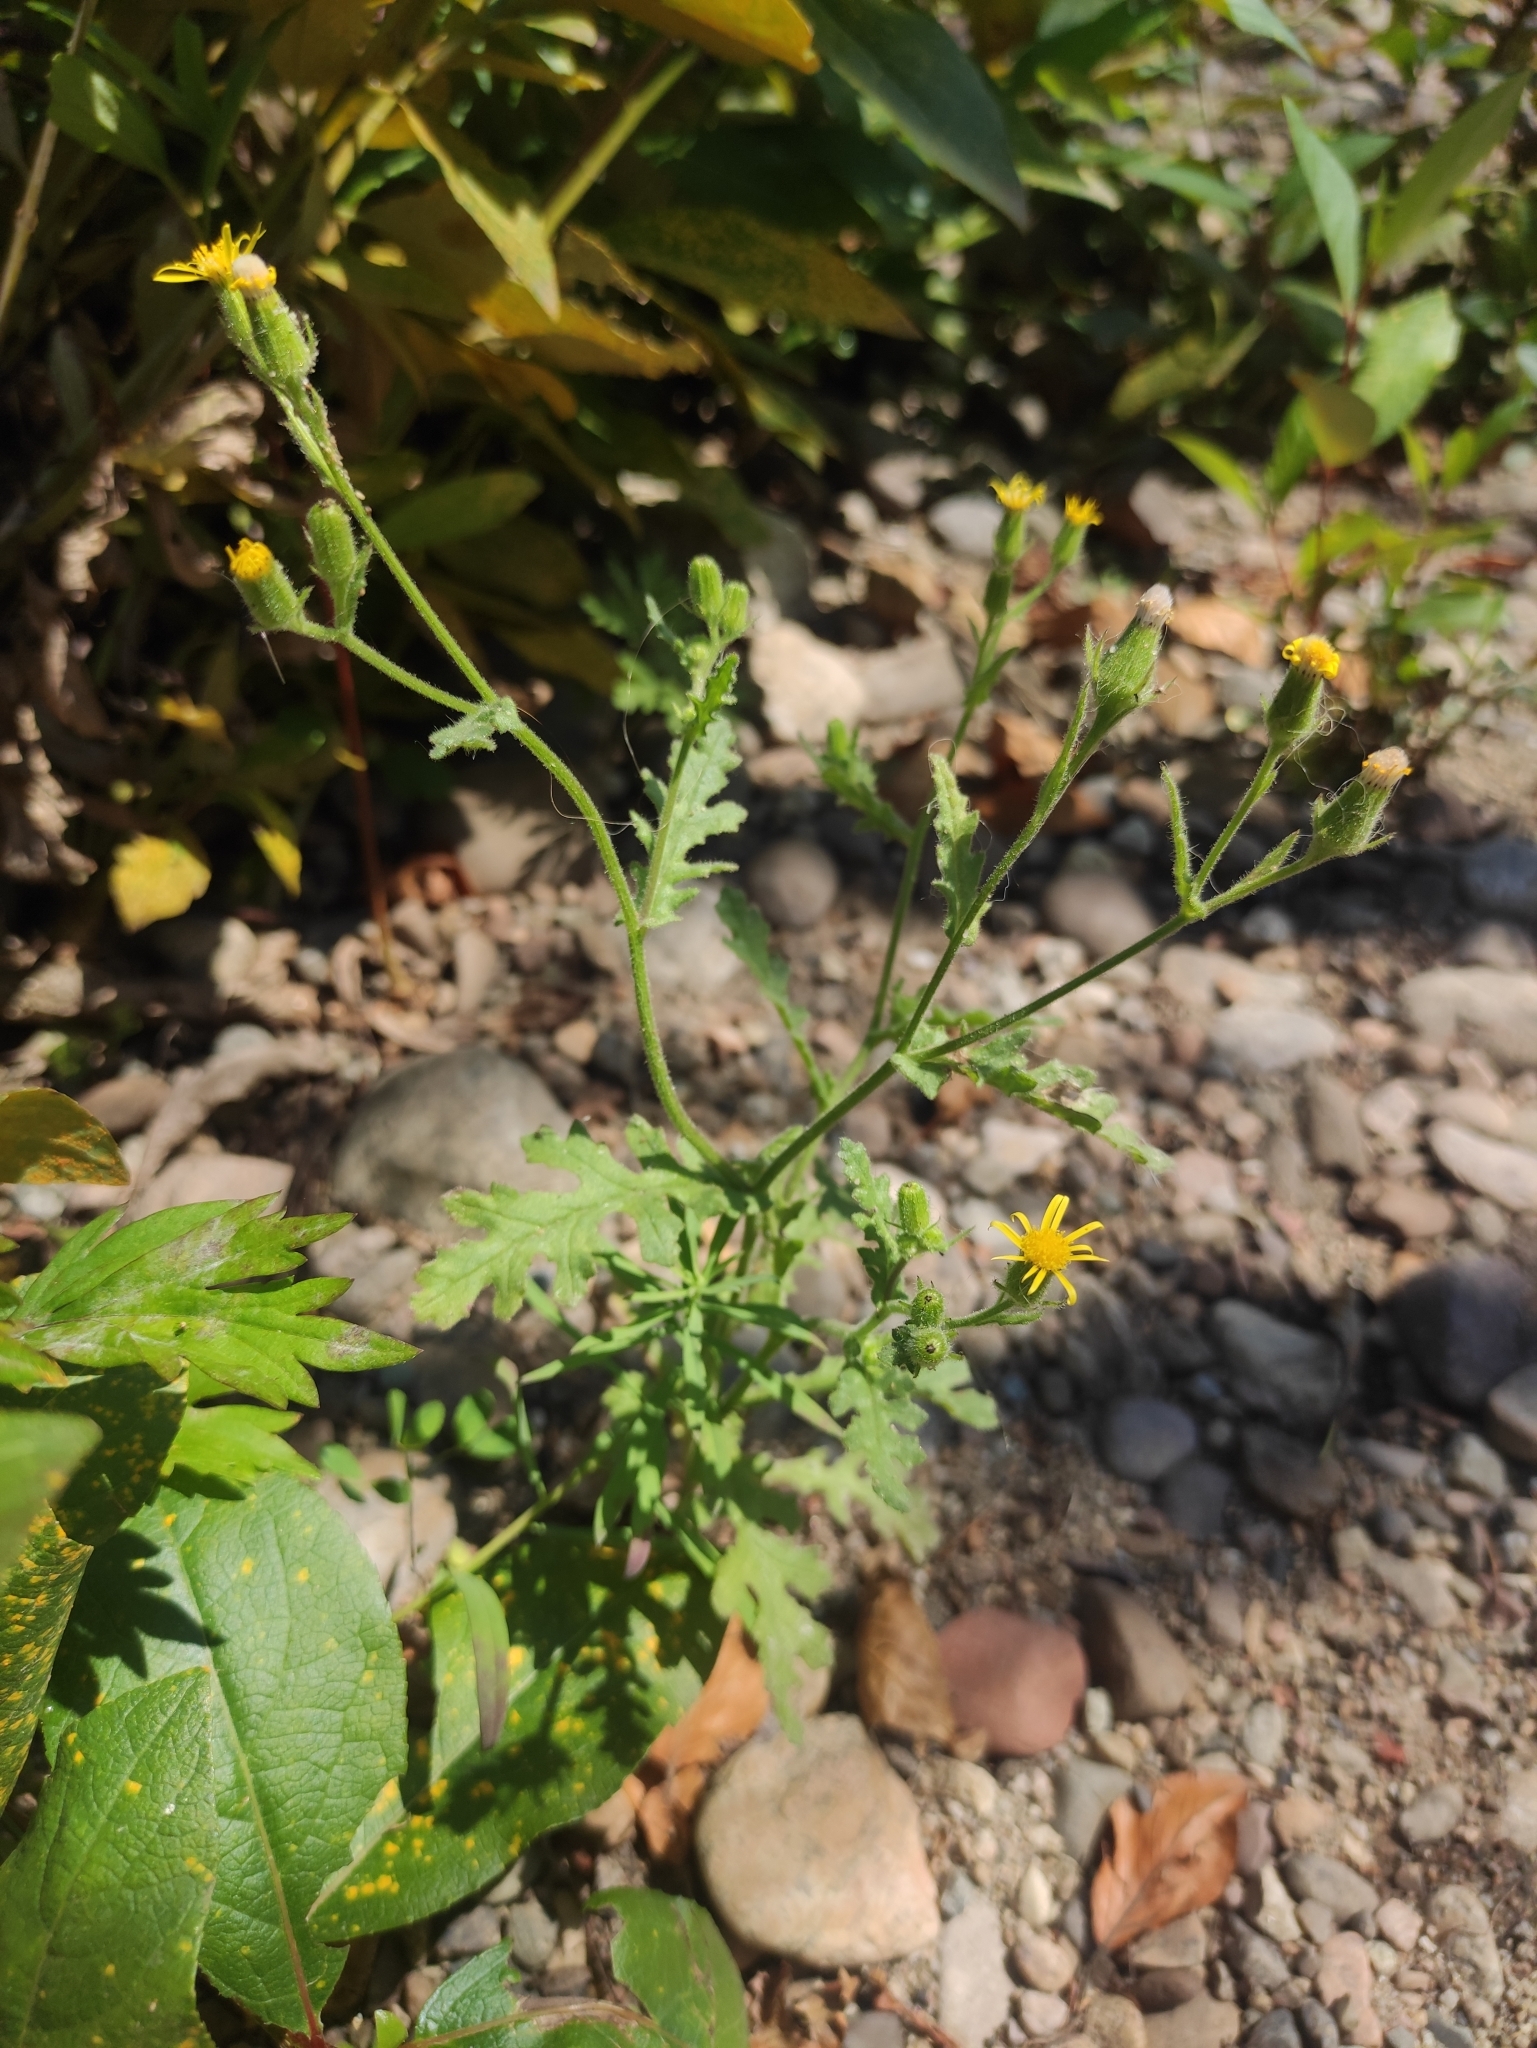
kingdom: Plantae
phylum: Tracheophyta
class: Magnoliopsida
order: Asterales
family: Asteraceae
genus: Senecio
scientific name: Senecio viscosus
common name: Sticky groundsel
